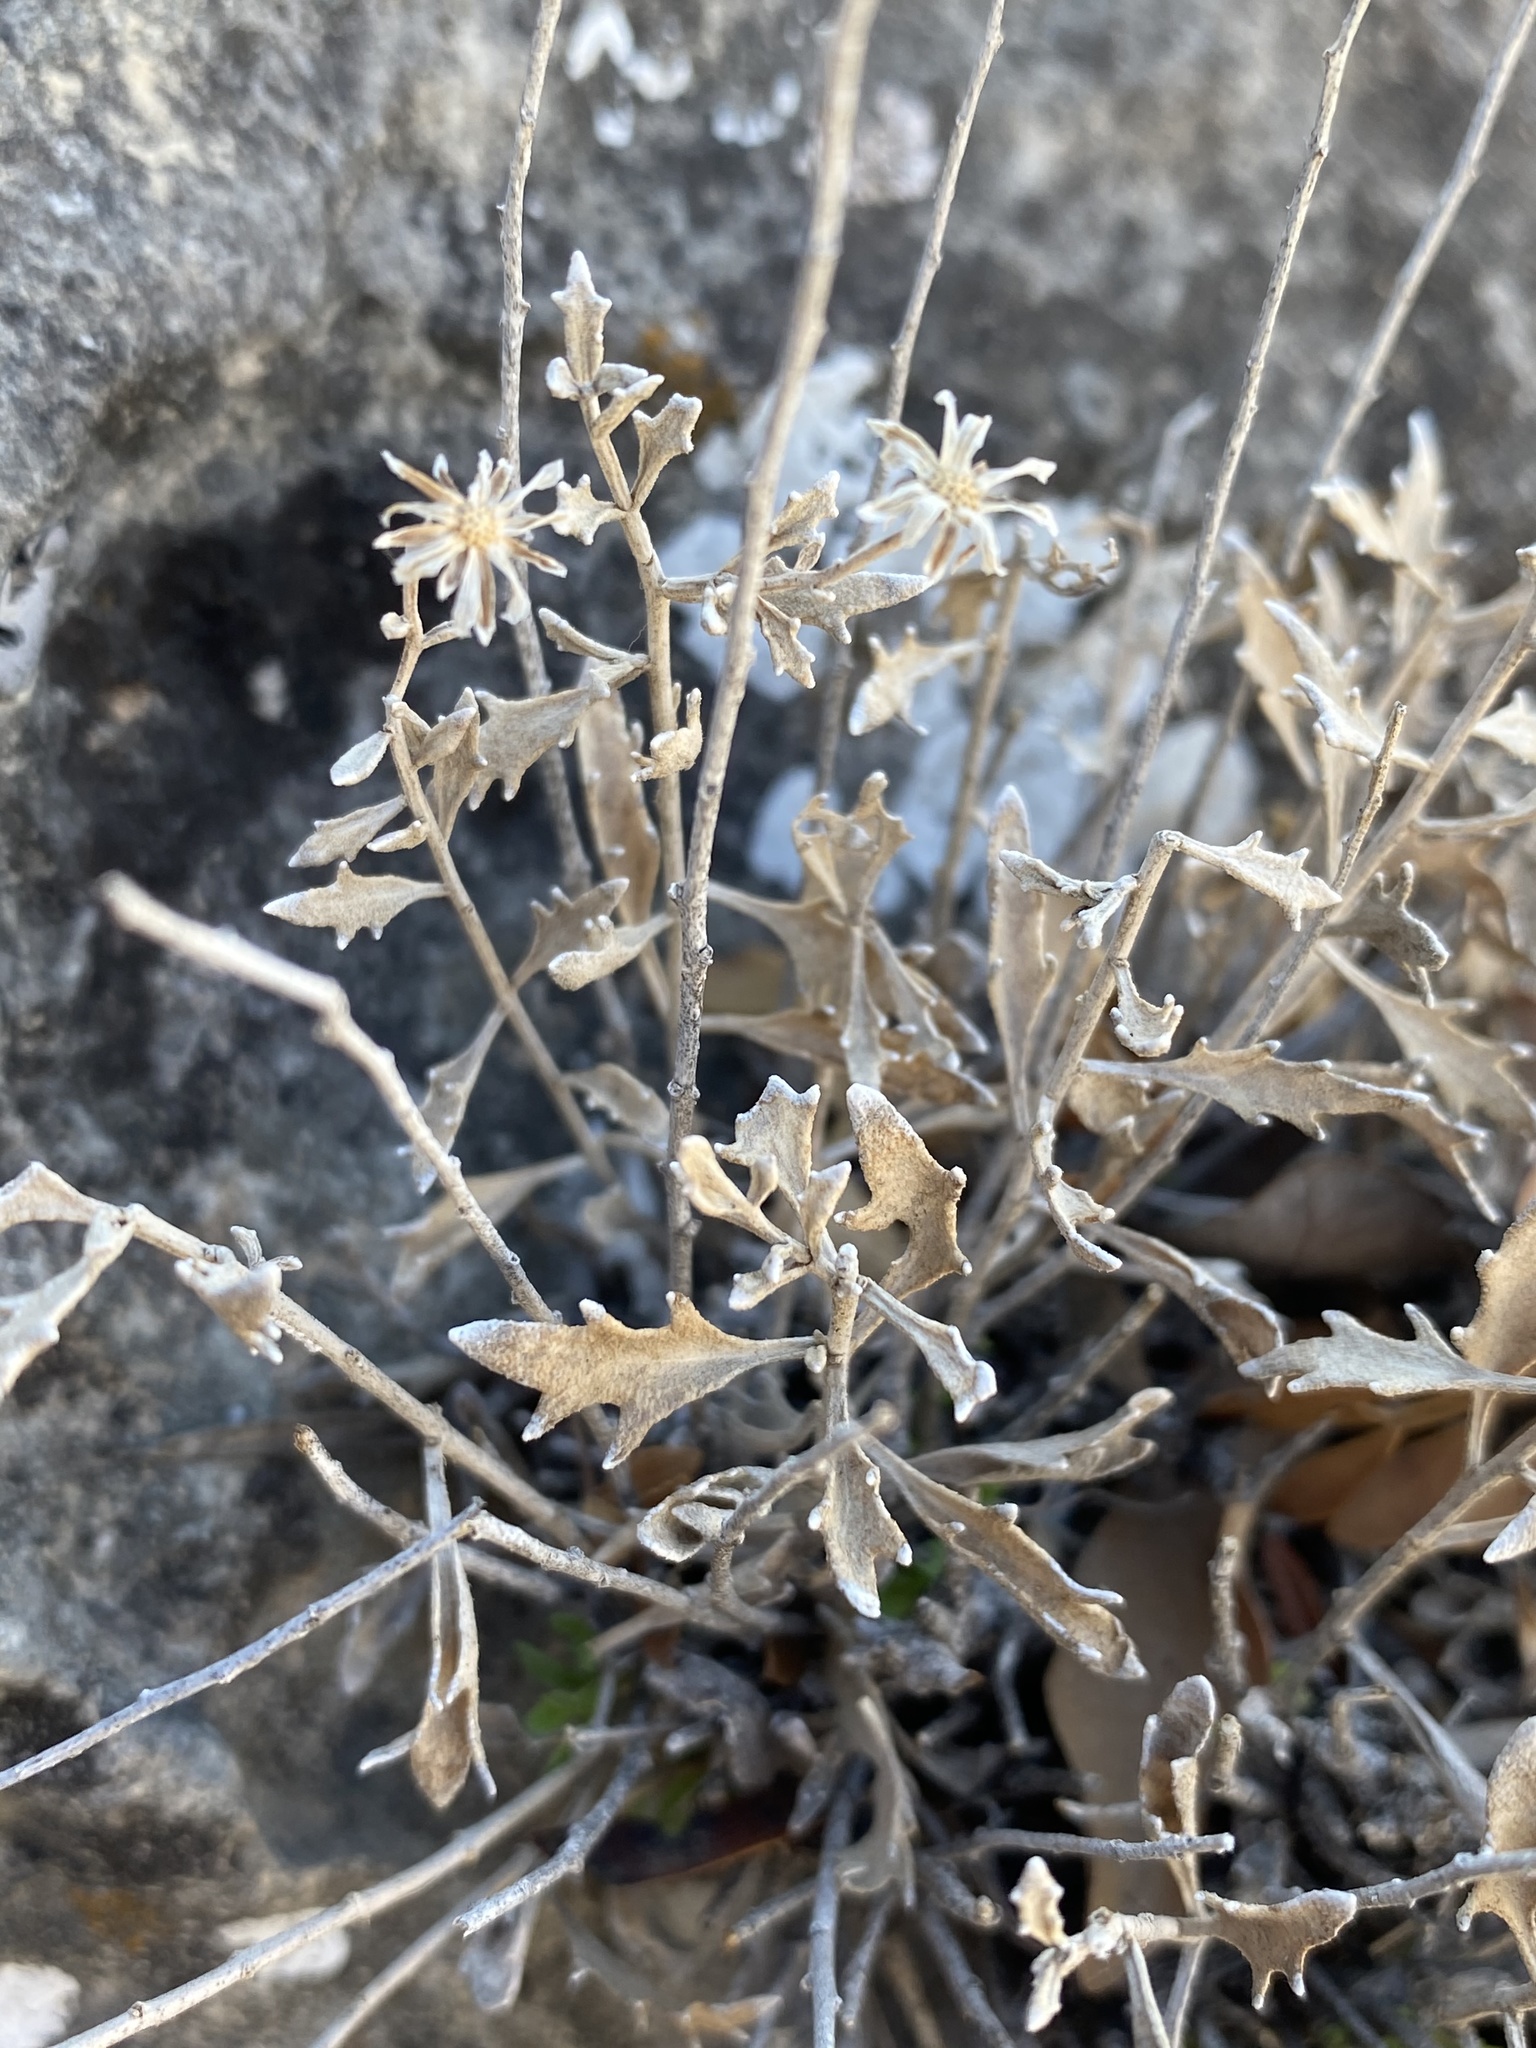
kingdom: Plantae
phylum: Tracheophyta
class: Magnoliopsida
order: Asterales
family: Asteraceae
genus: Laphamia
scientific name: Laphamia angustifolia
